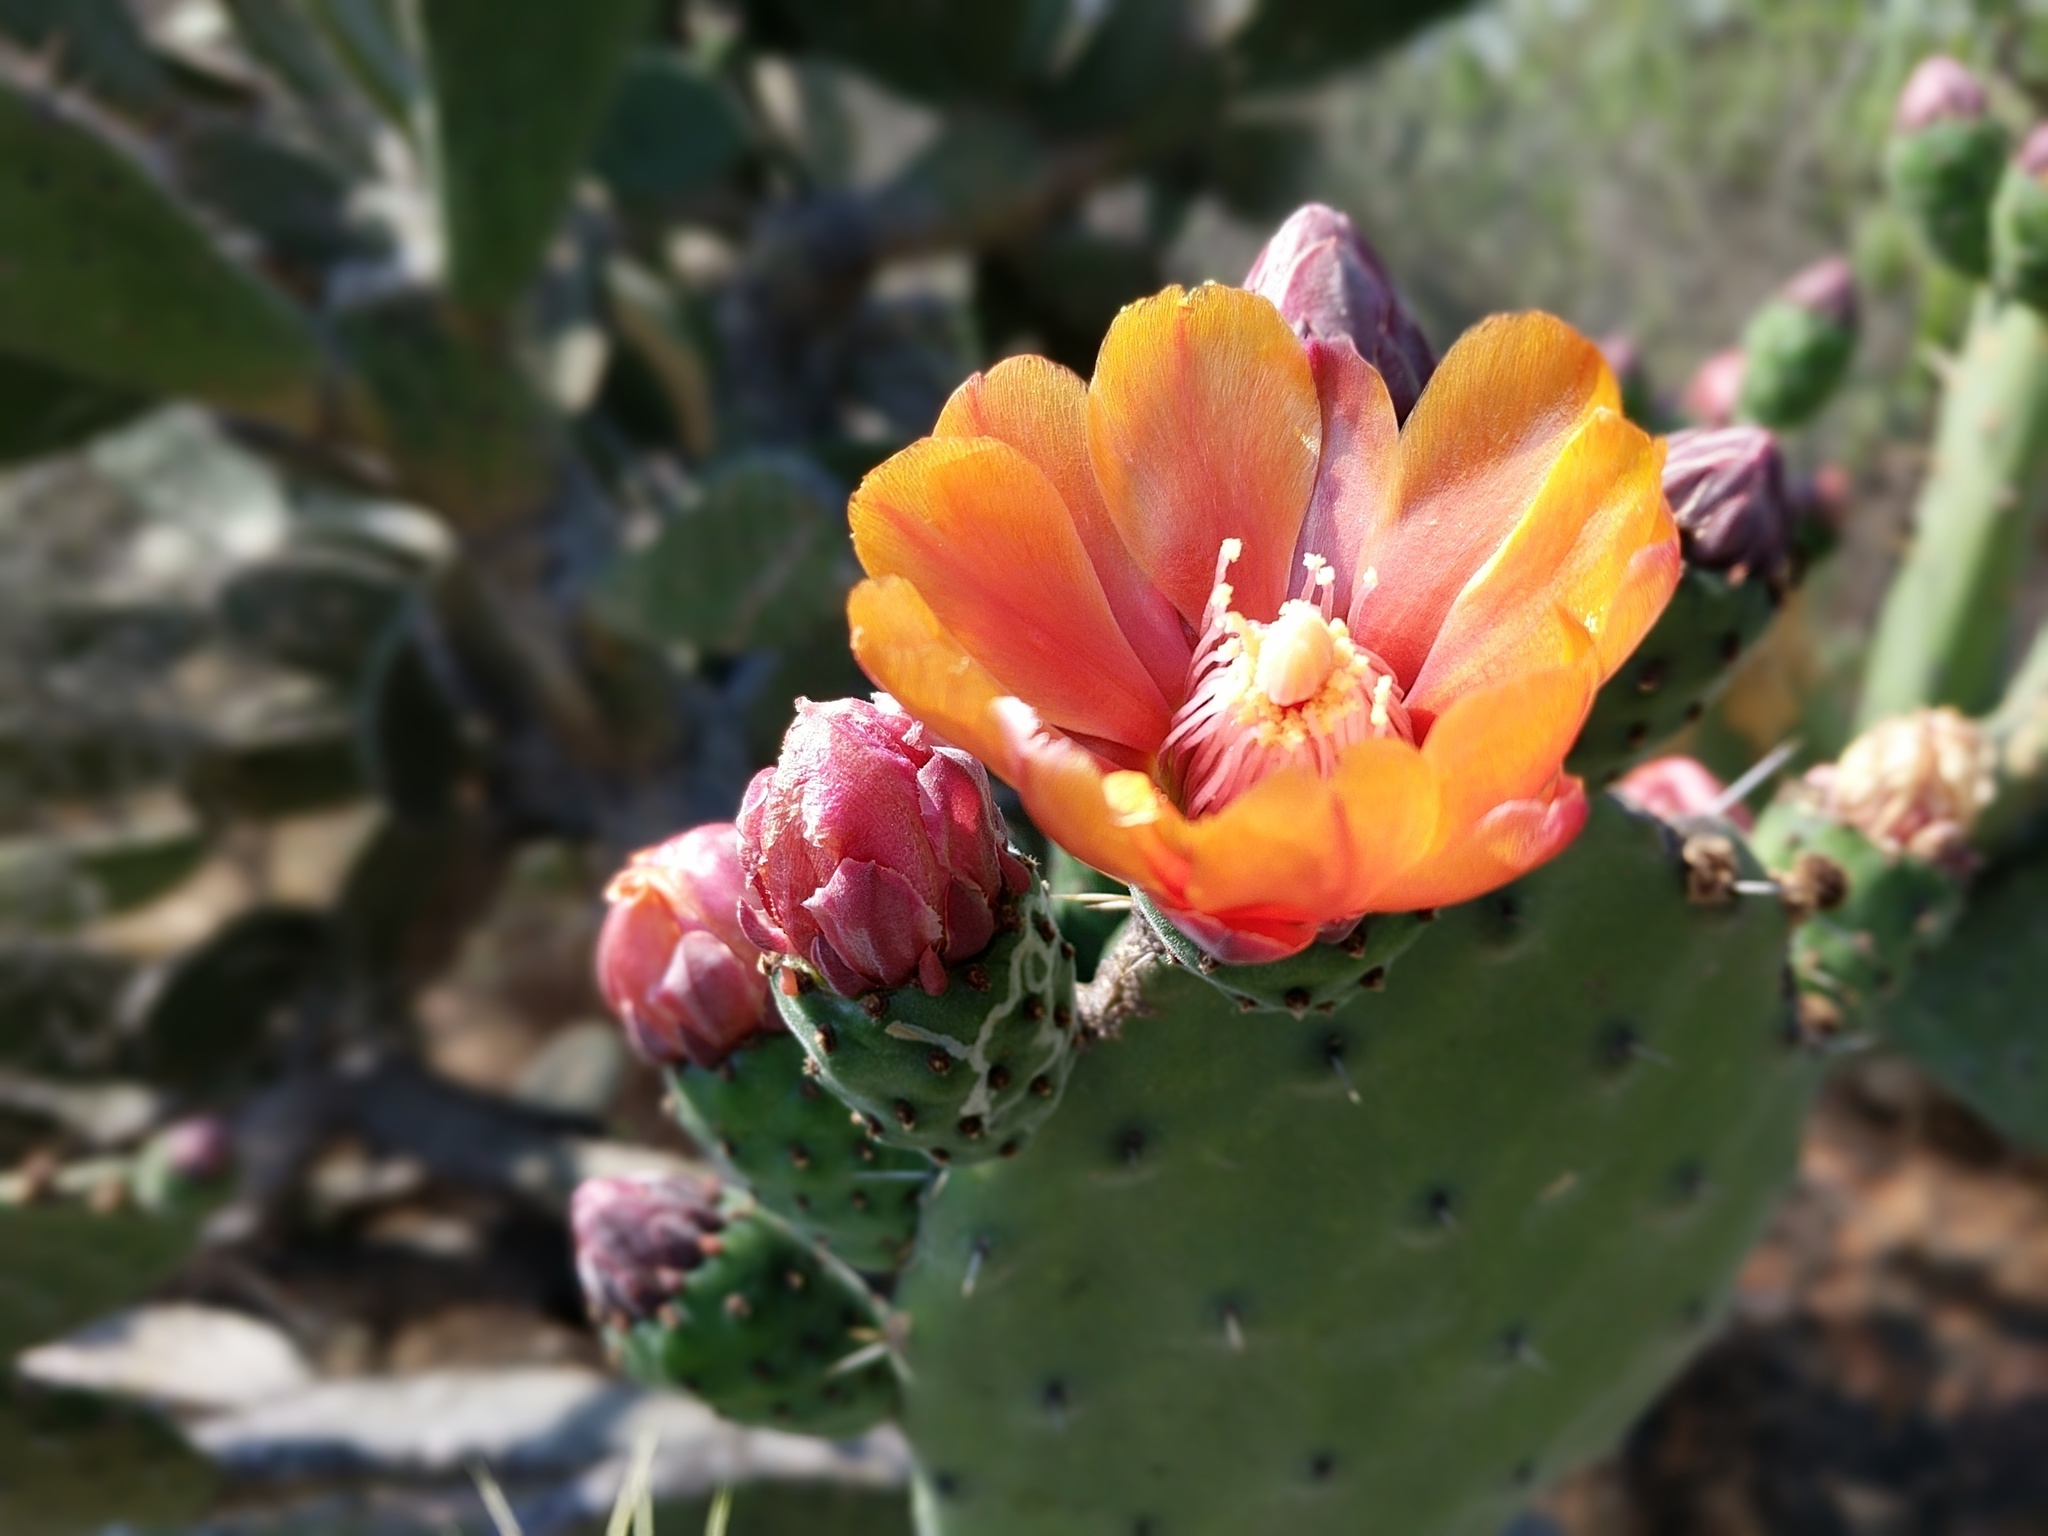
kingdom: Plantae
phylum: Tracheophyta
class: Magnoliopsida
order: Caryophyllales
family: Cactaceae
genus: Opuntia
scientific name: Opuntia tomentosa
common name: Woollyjoint pricklypear
